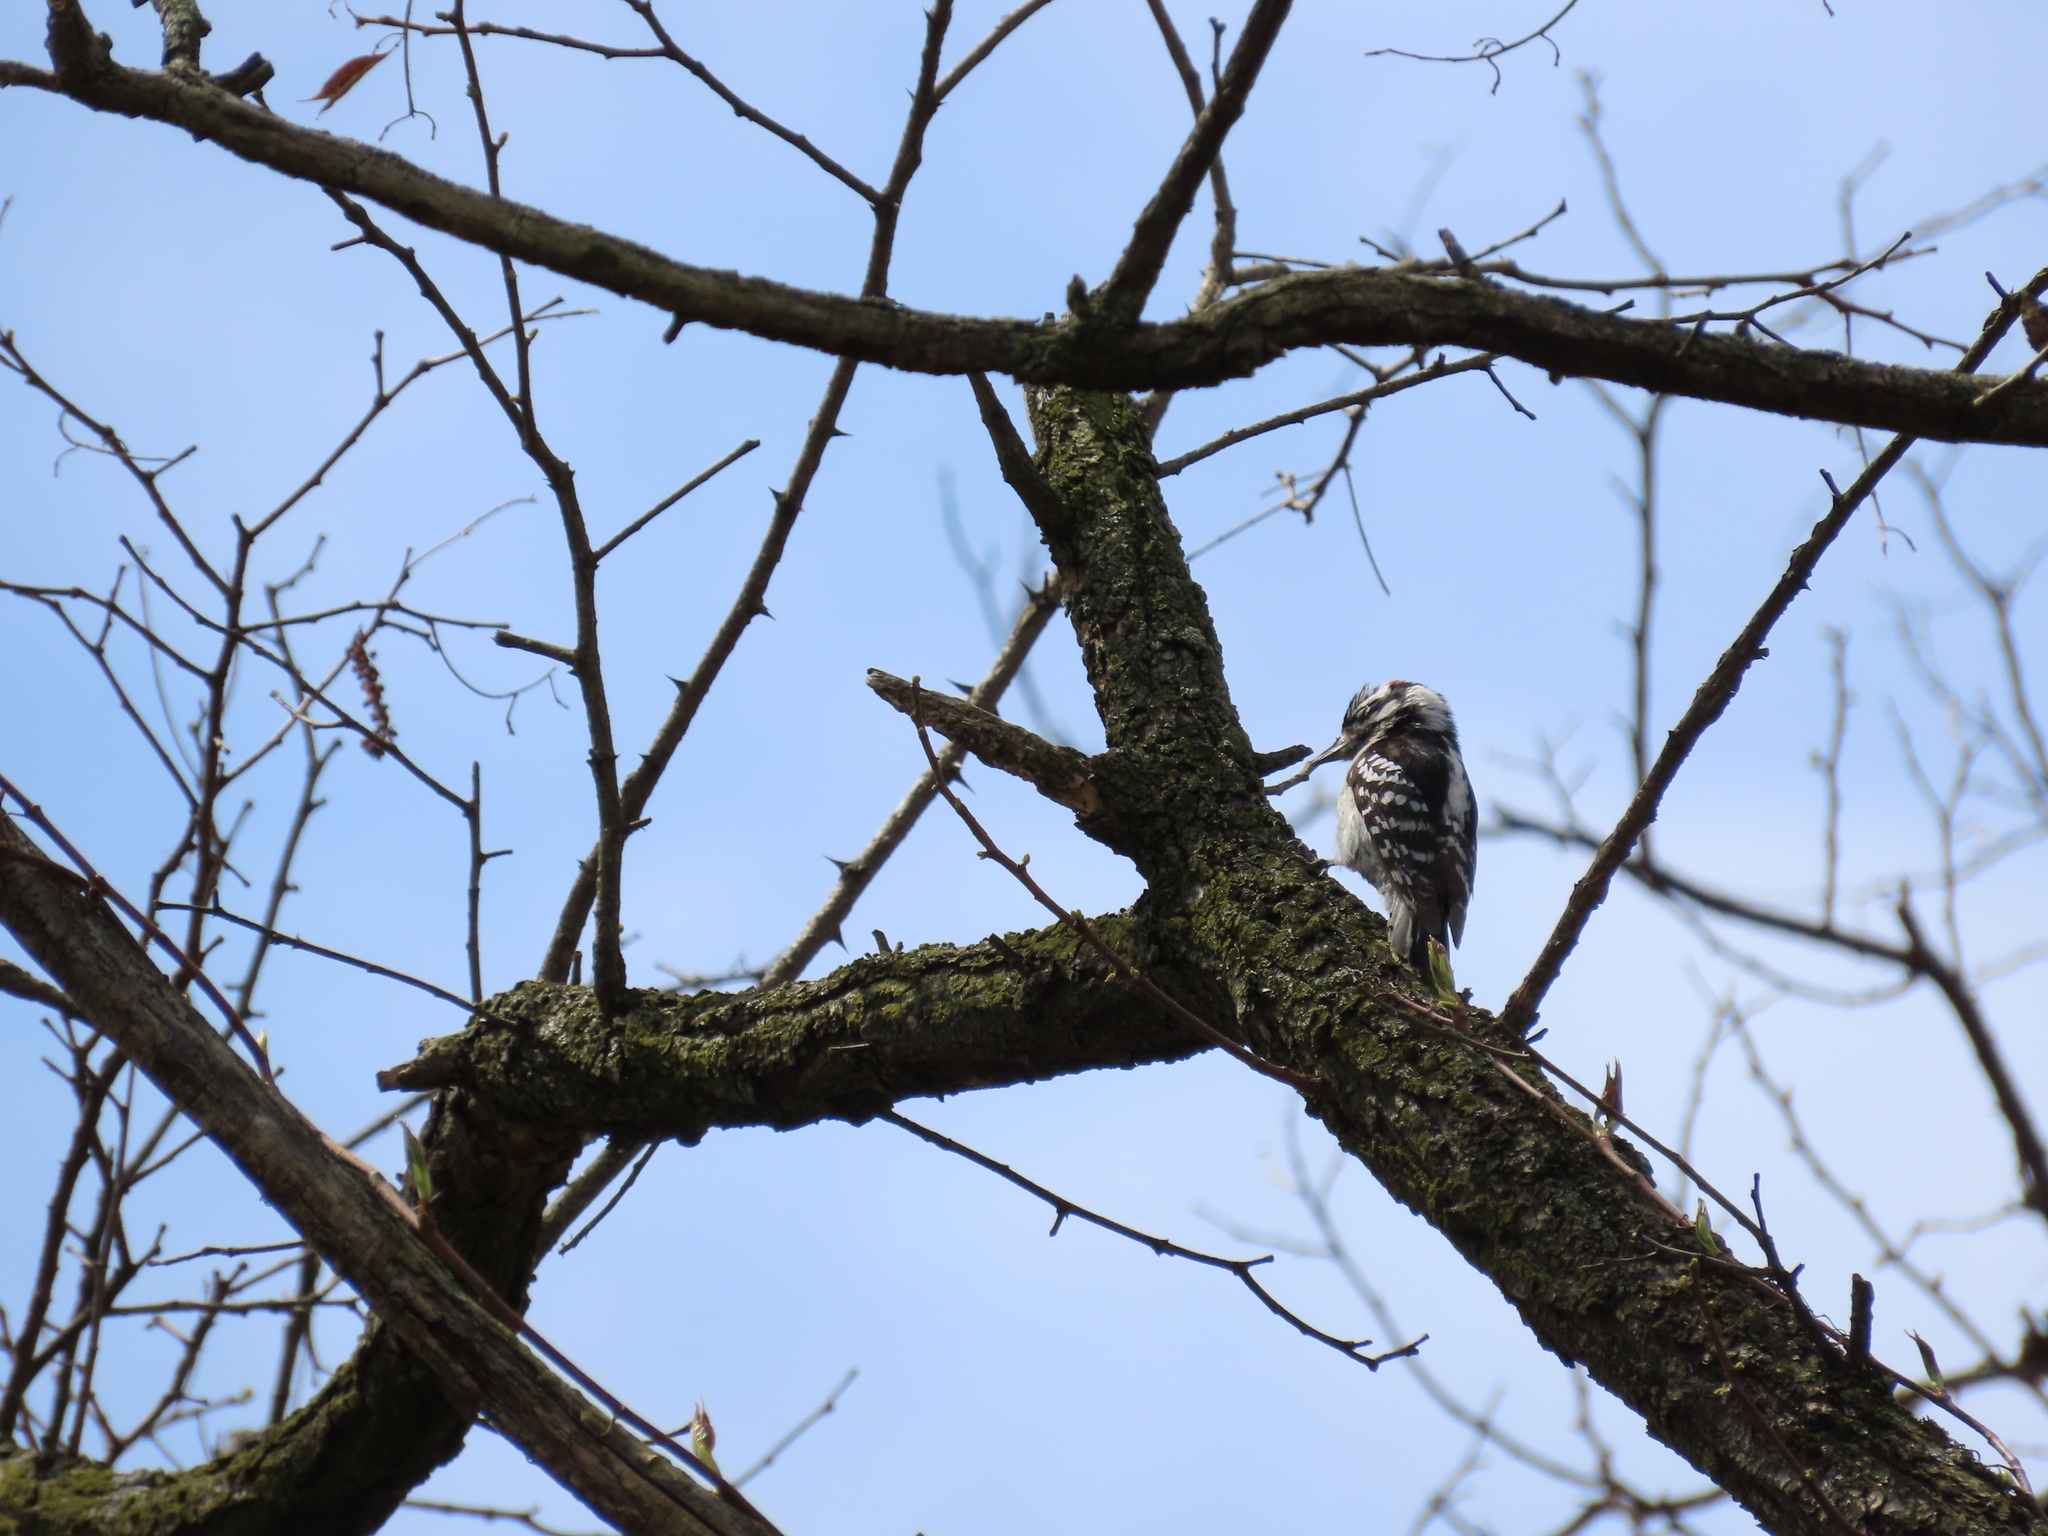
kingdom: Animalia
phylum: Chordata
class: Aves
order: Piciformes
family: Picidae
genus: Dryobates
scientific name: Dryobates pubescens
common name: Downy woodpecker
